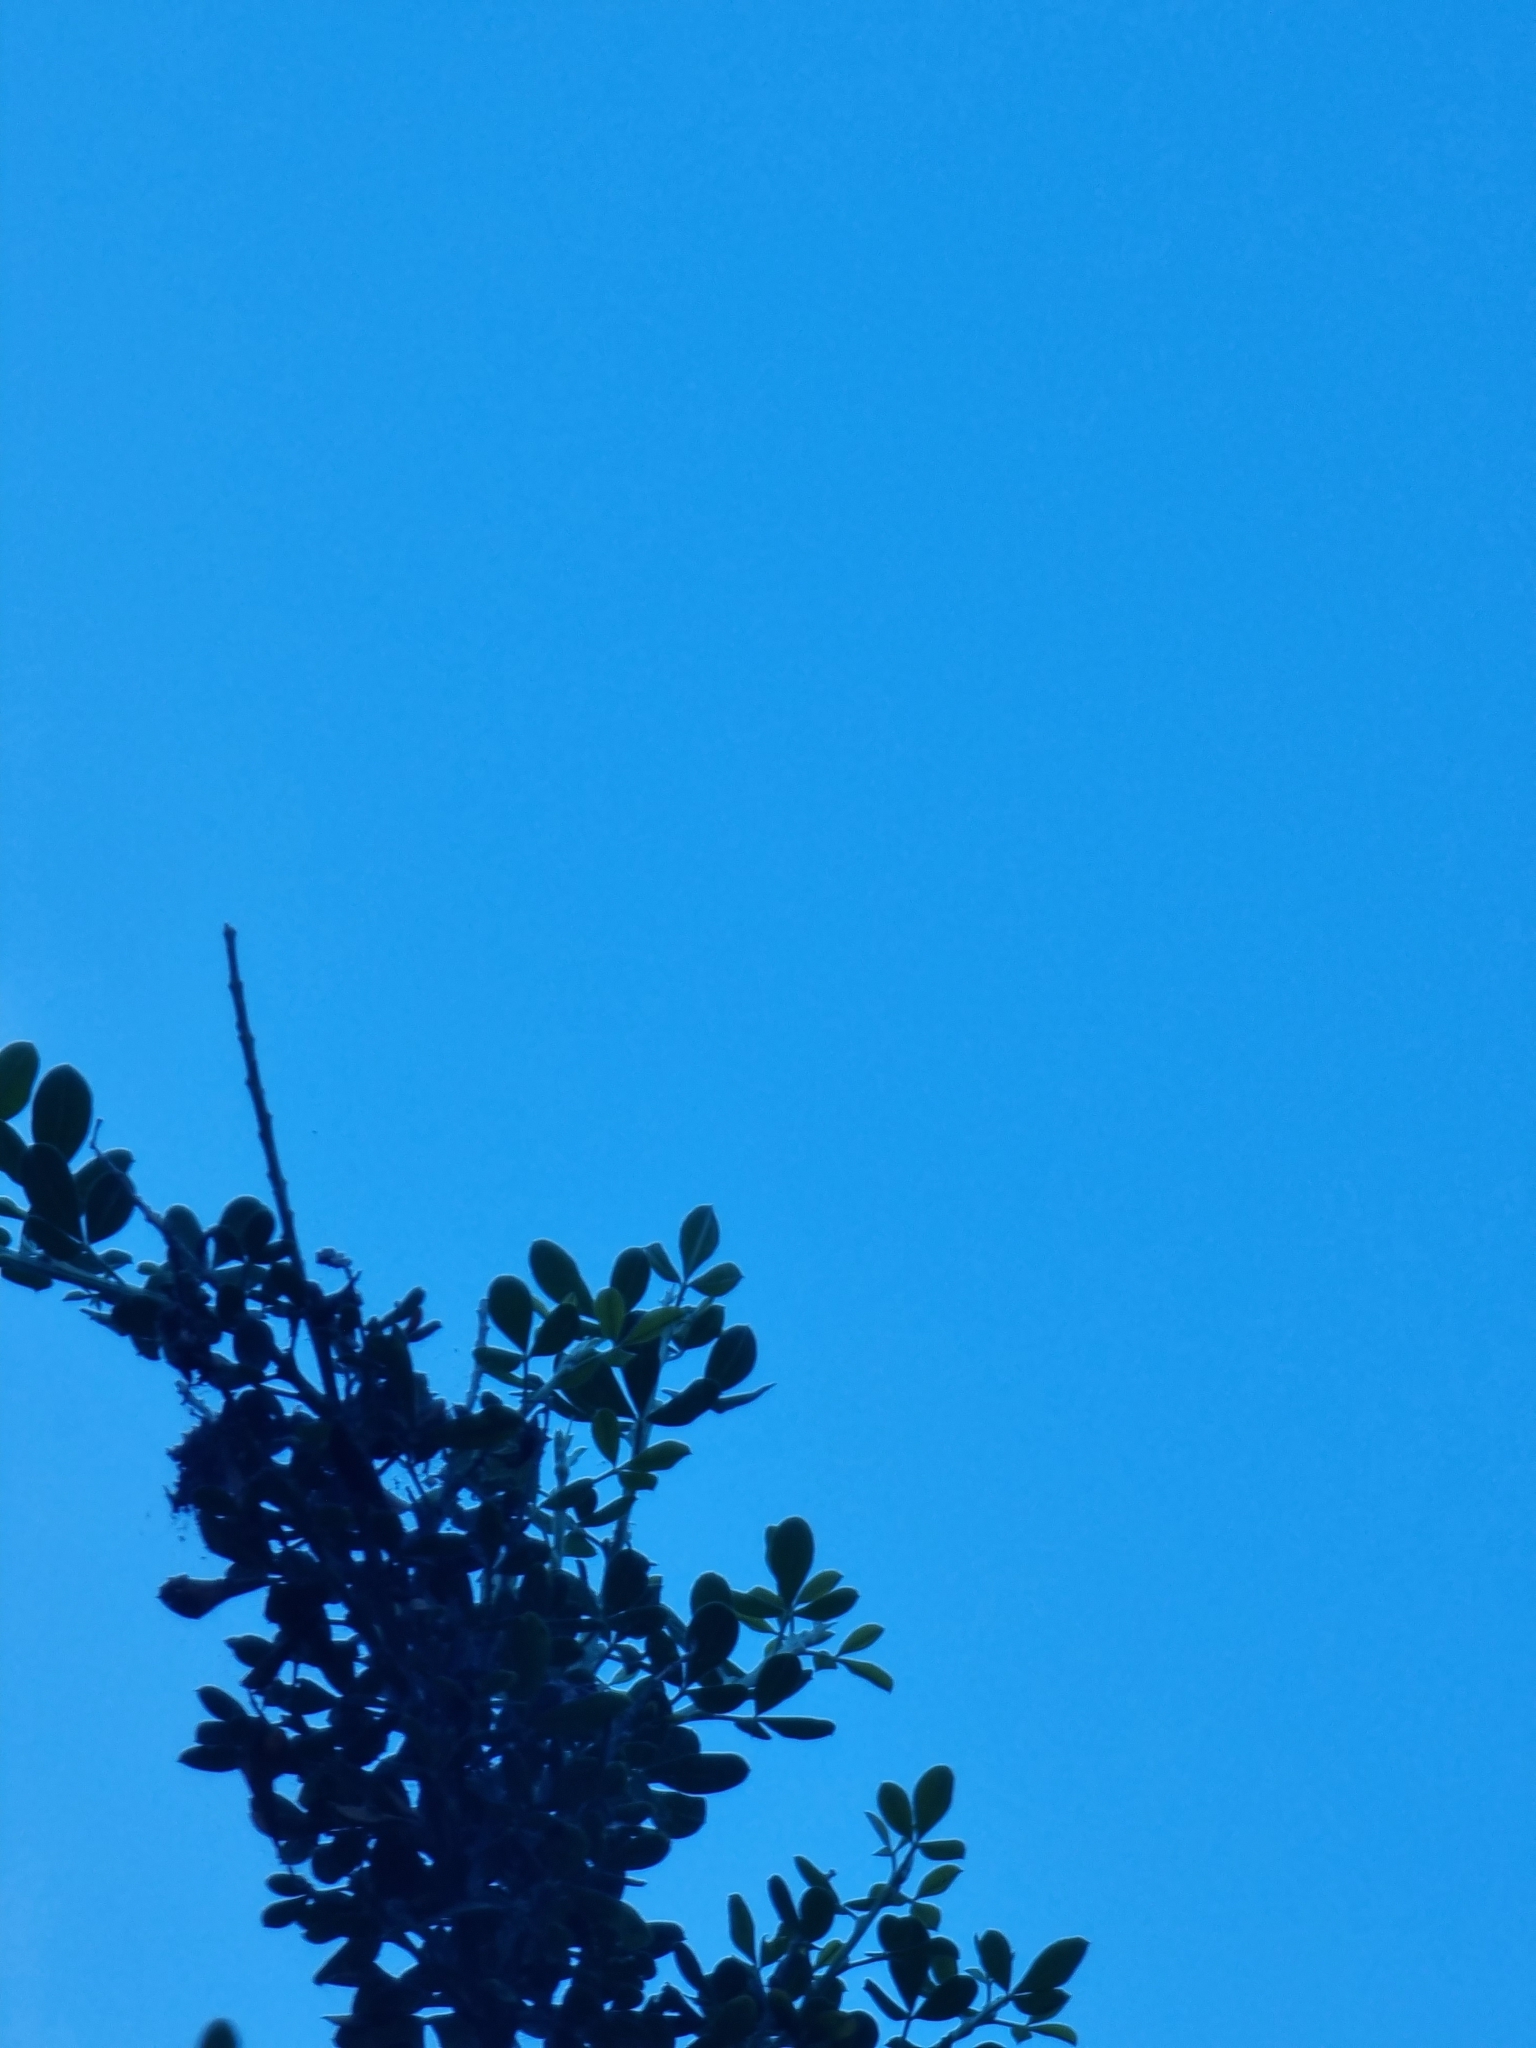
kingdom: Plantae
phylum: Tracheophyta
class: Magnoliopsida
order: Fabales
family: Fabaceae
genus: Genista
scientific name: Genista maderensis
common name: Madeira dyer's greenweed
